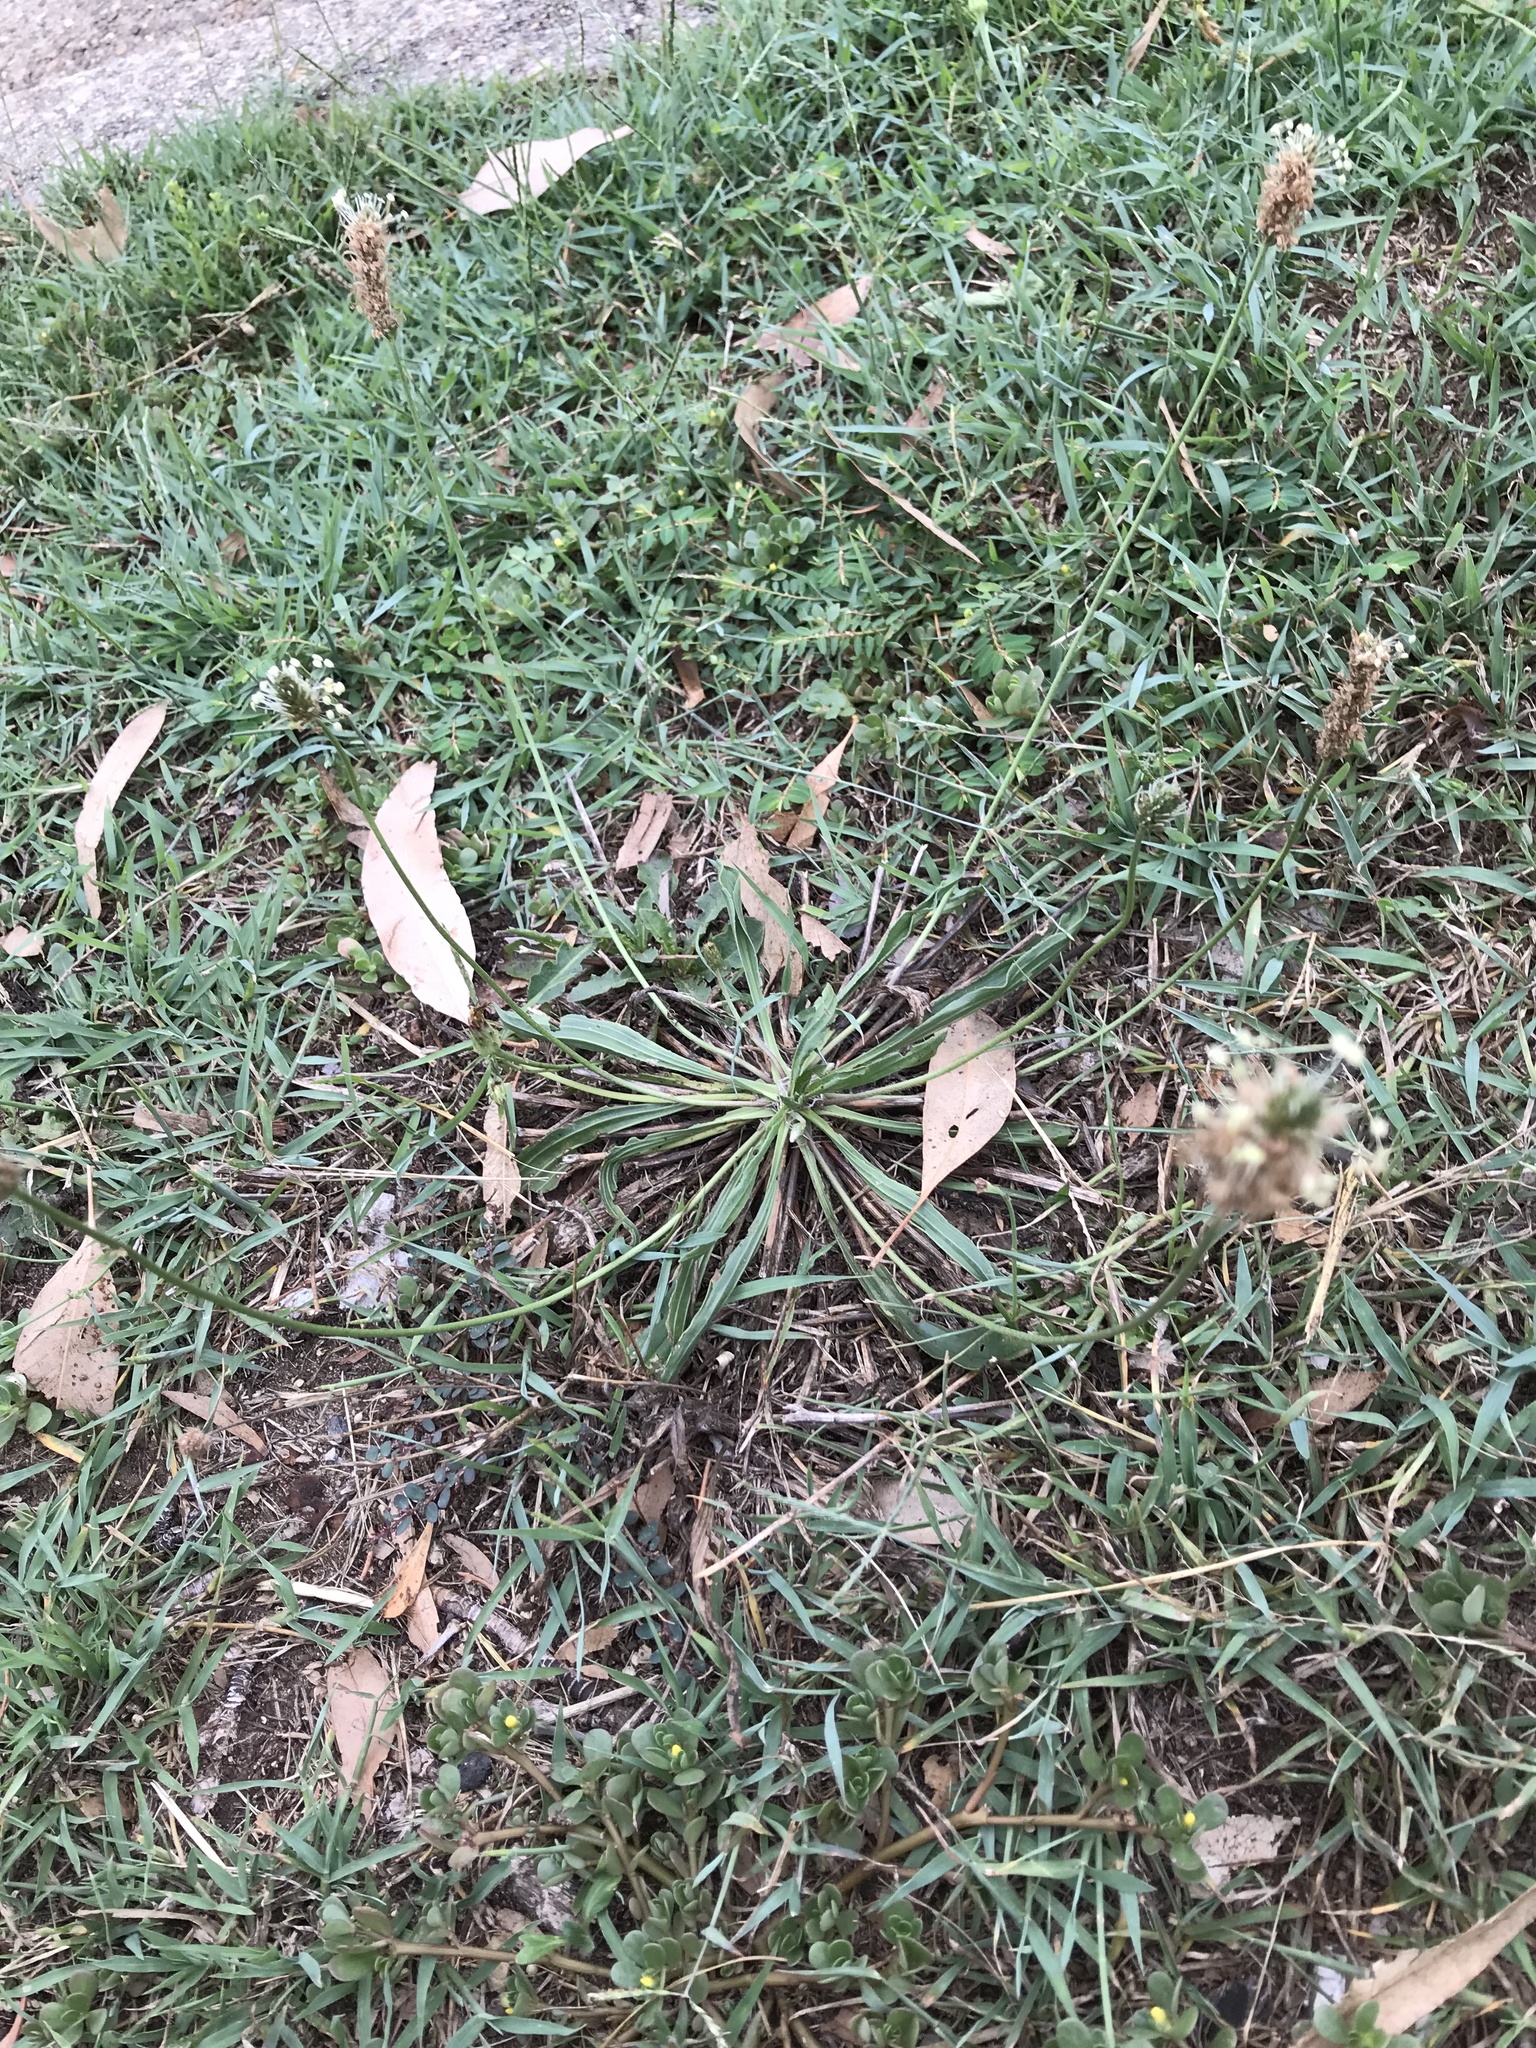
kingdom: Plantae
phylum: Tracheophyta
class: Magnoliopsida
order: Lamiales
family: Plantaginaceae
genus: Plantago
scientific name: Plantago lanceolata
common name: Ribwort plantain
